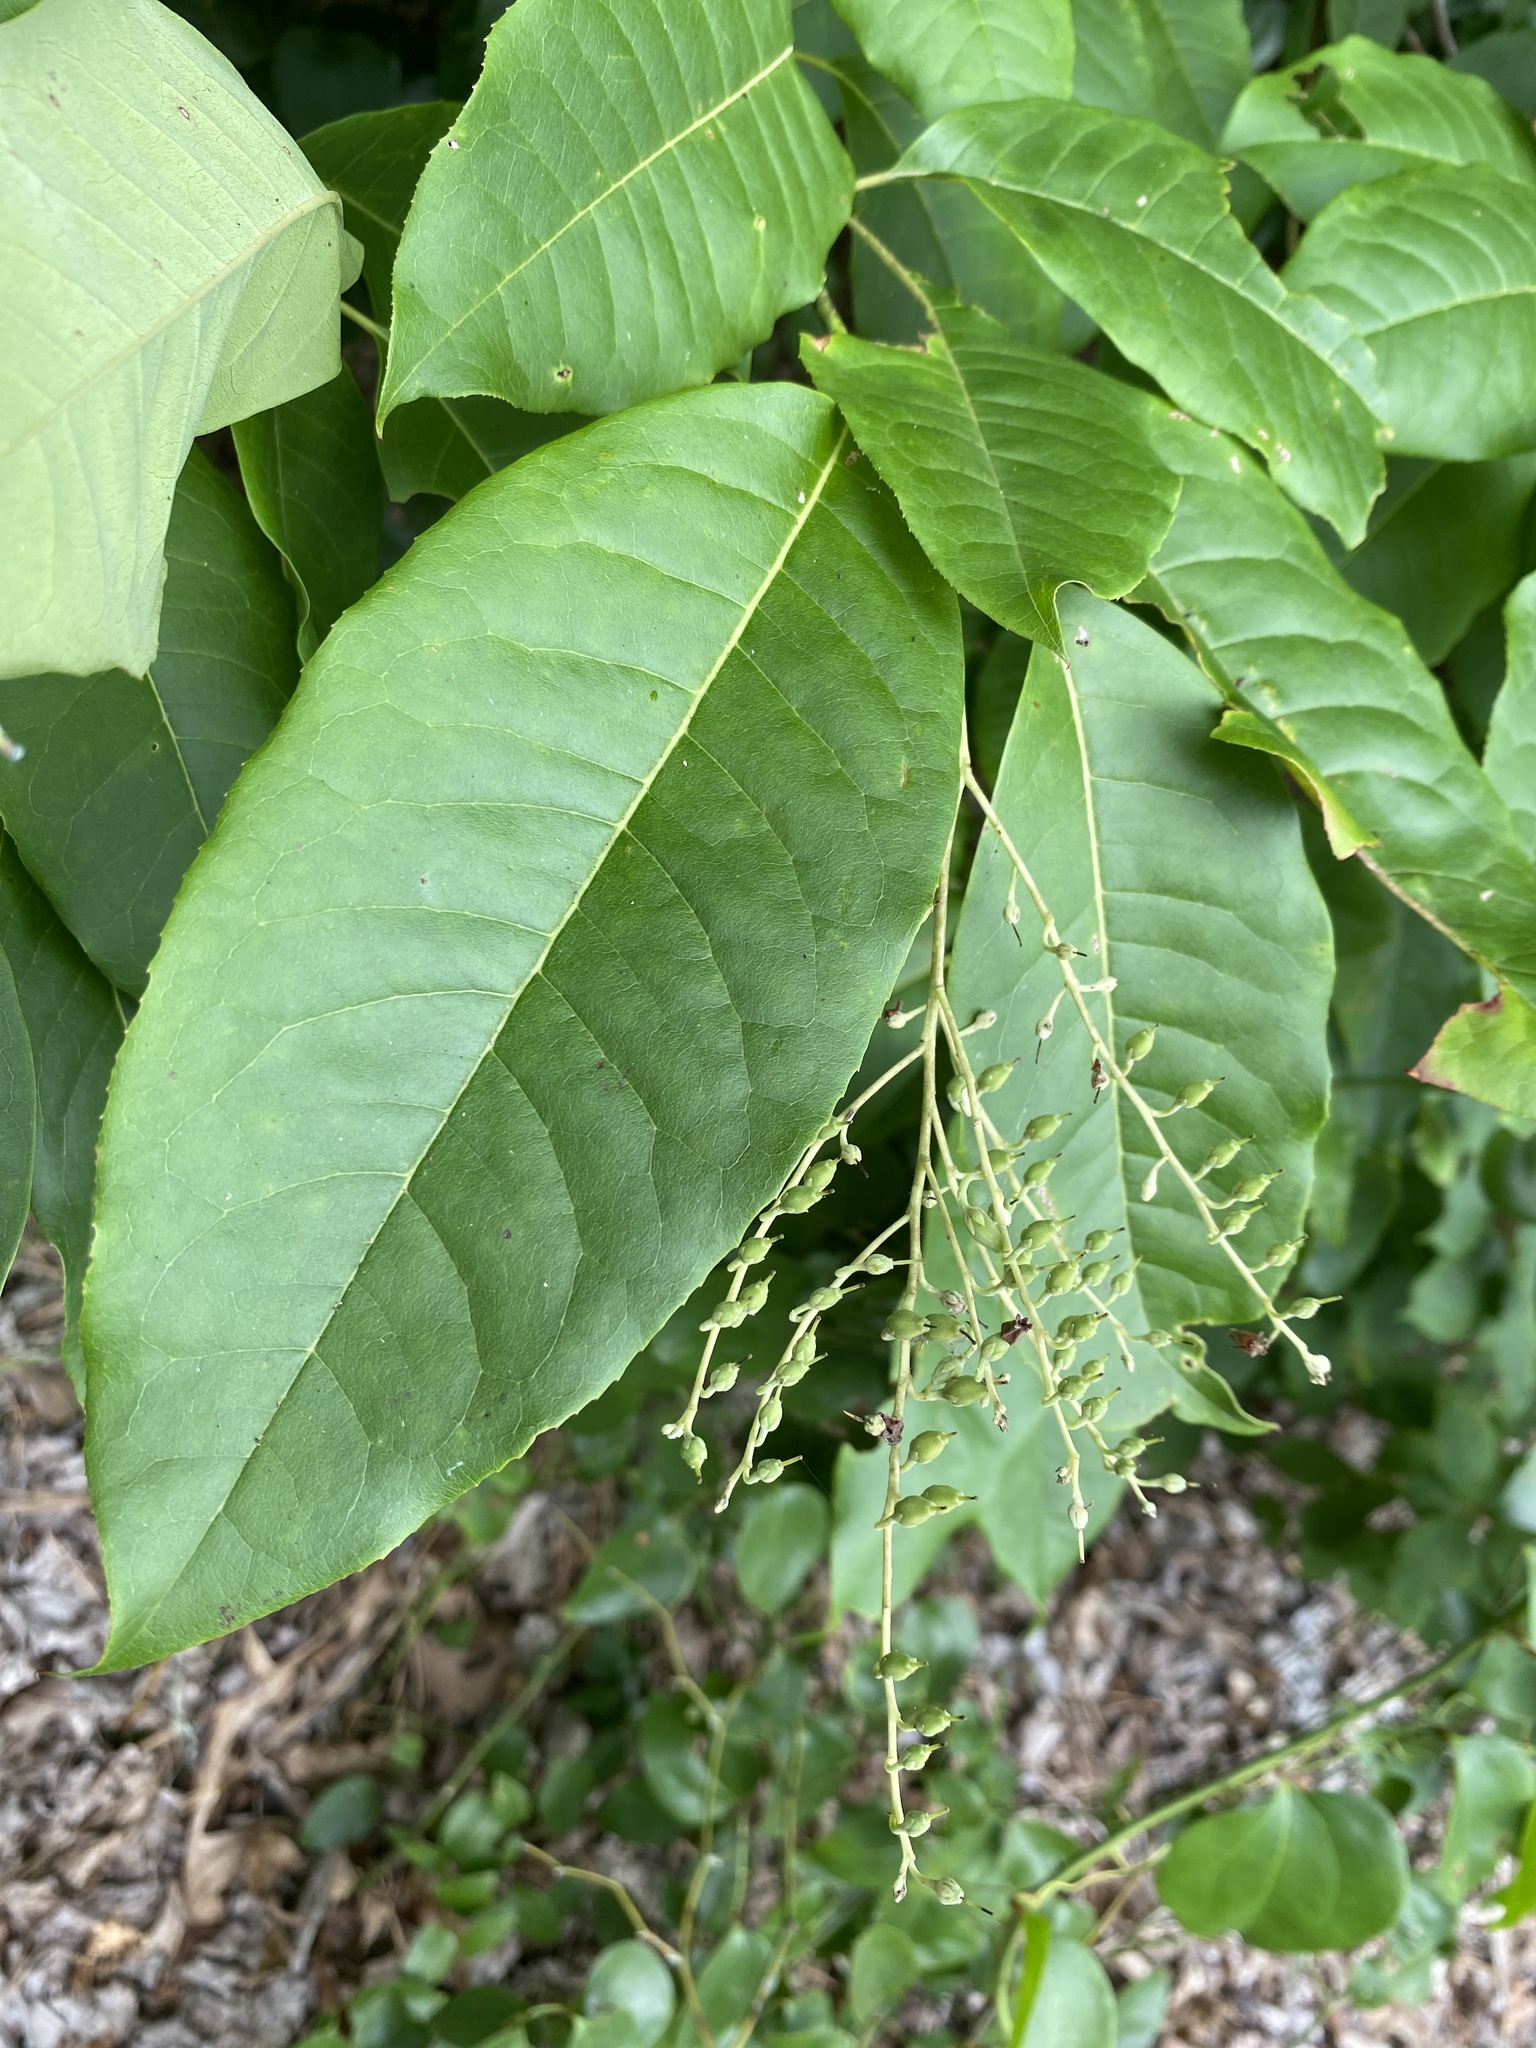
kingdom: Plantae
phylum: Tracheophyta
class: Magnoliopsida
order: Ericales
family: Ericaceae
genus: Oxydendrum
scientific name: Oxydendrum arboreum
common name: Sourwood
